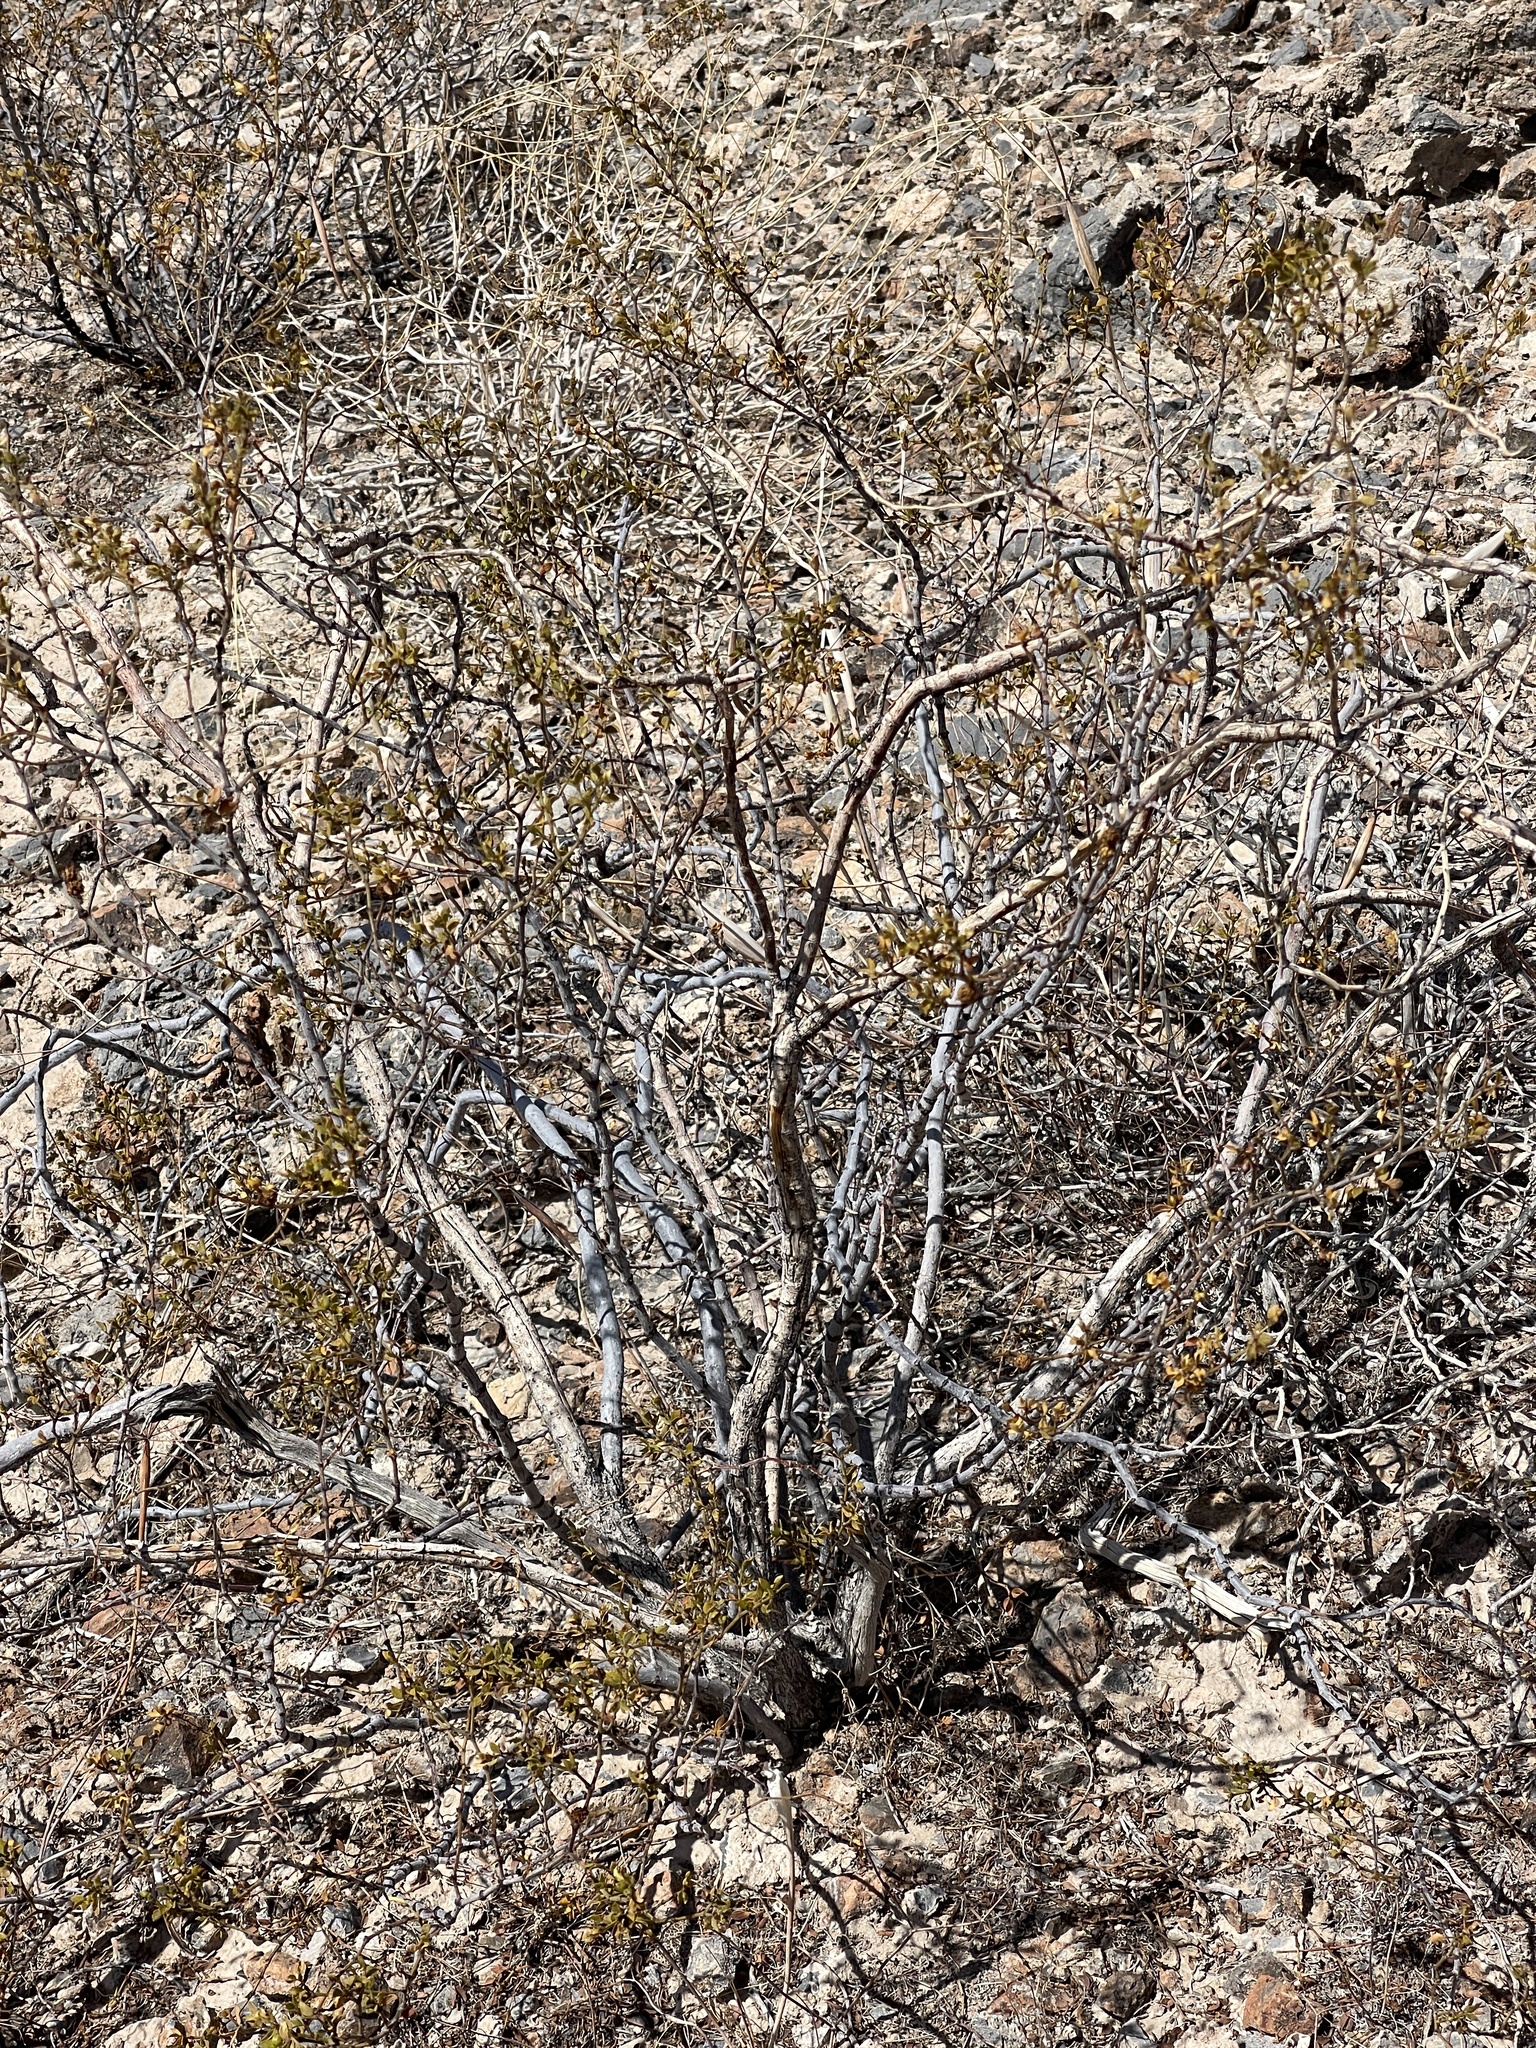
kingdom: Plantae
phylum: Tracheophyta
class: Magnoliopsida
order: Zygophyllales
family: Zygophyllaceae
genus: Larrea
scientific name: Larrea tridentata
